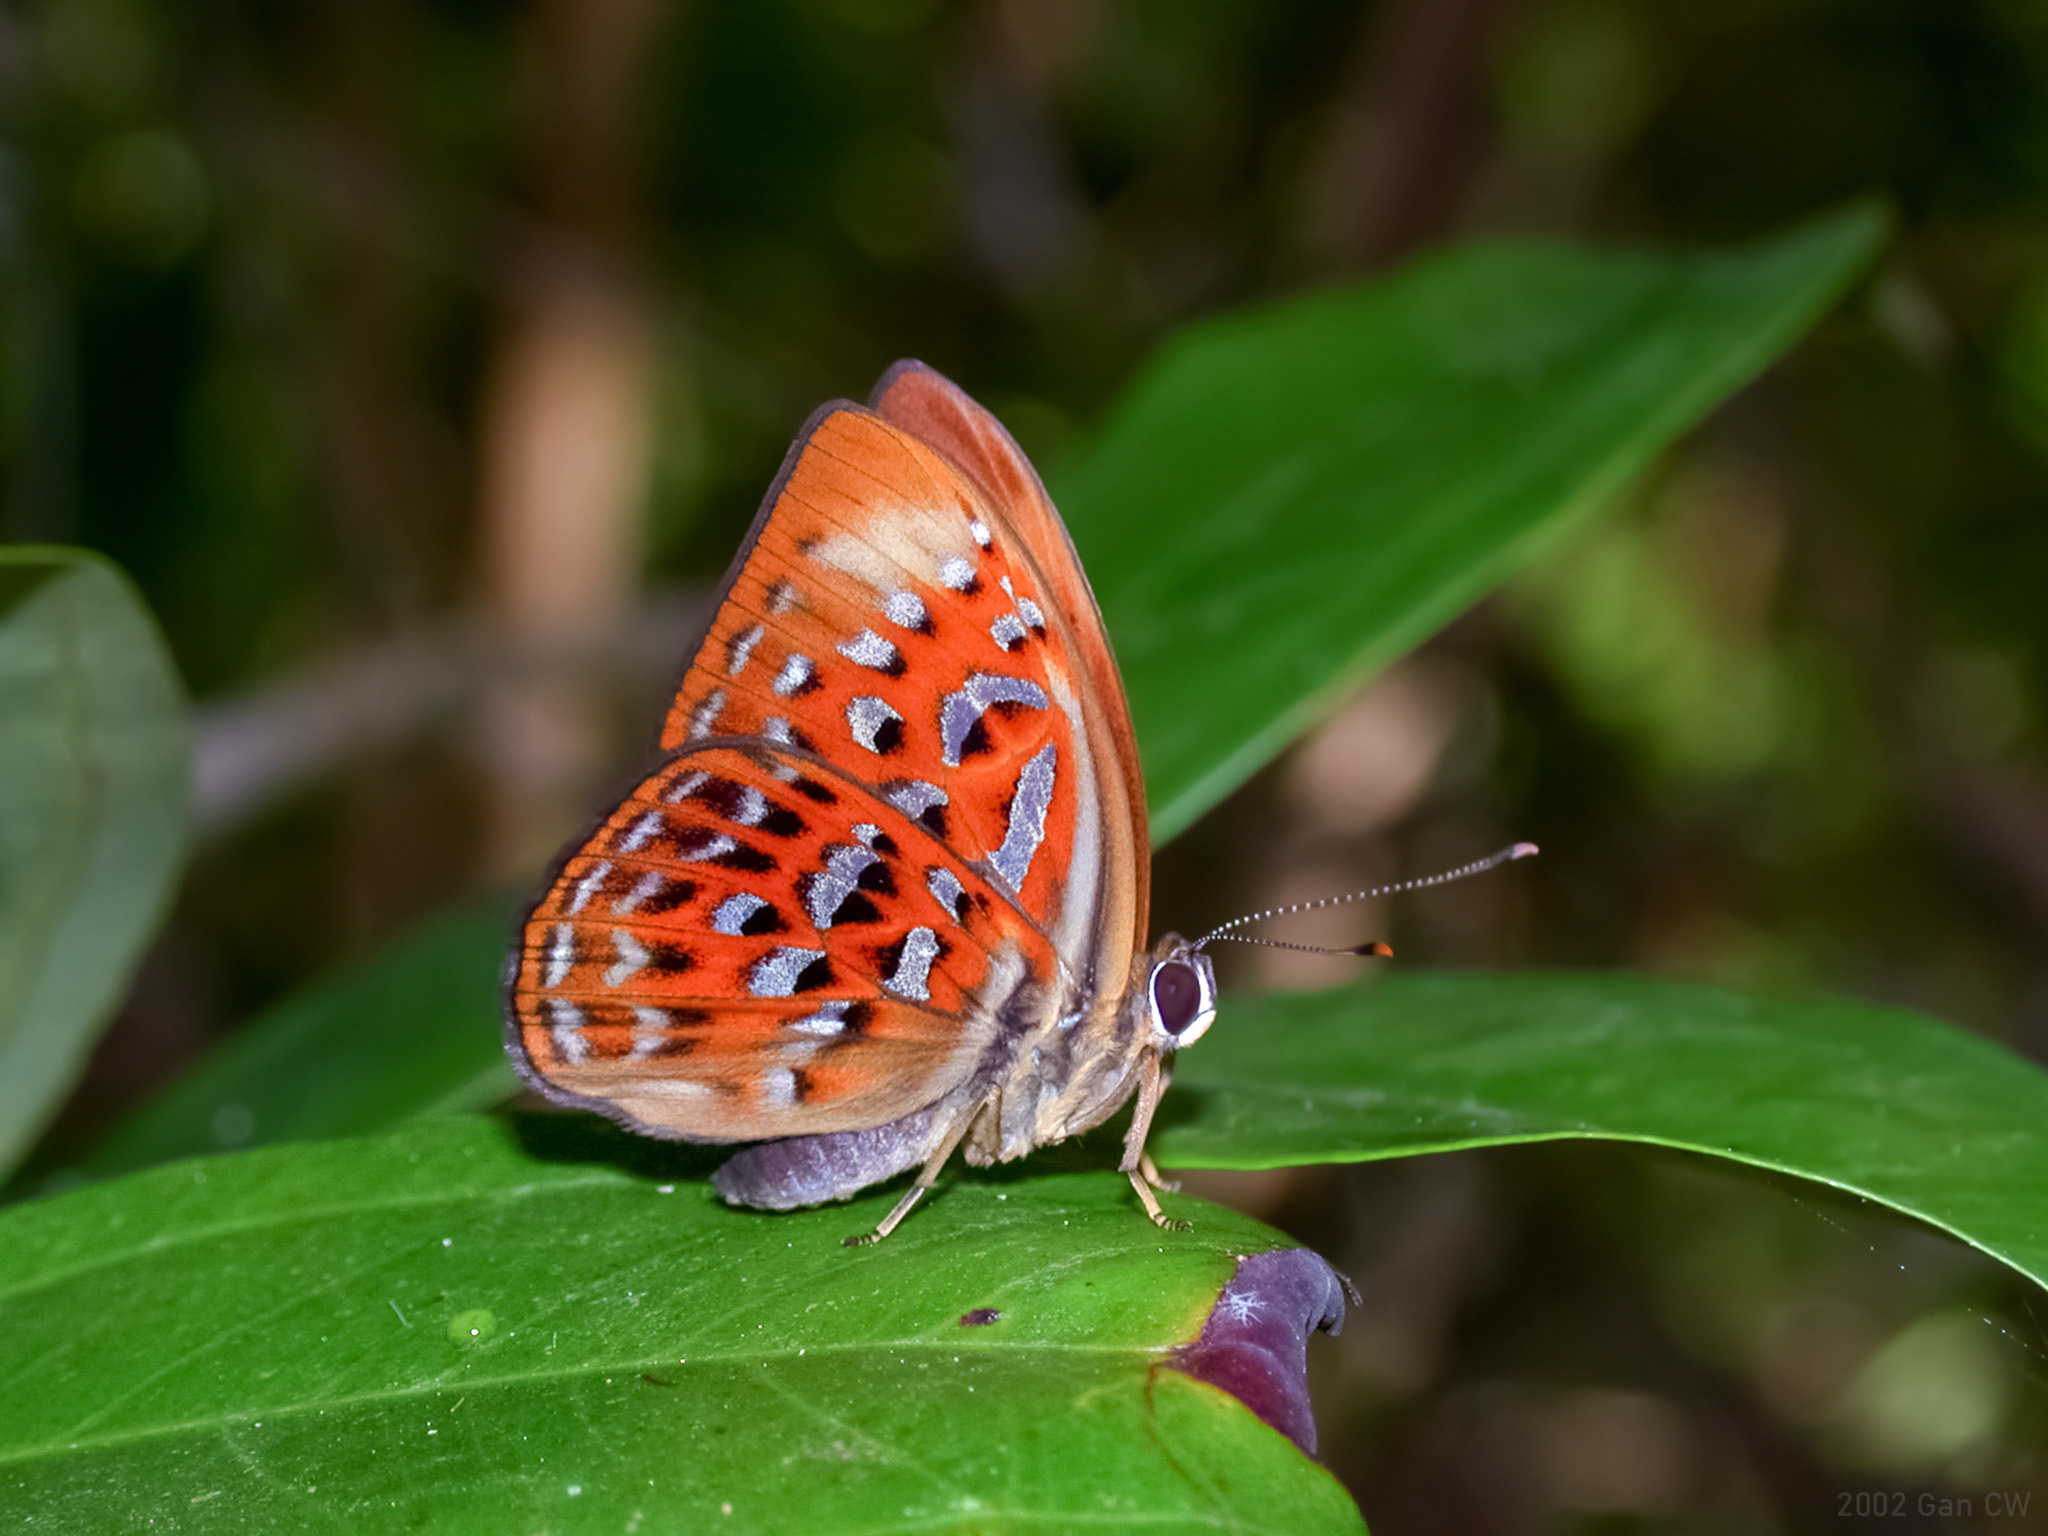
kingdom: Animalia
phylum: Arthropoda
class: Insecta
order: Lepidoptera
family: Erebidae
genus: Dysschema
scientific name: Dysschema
